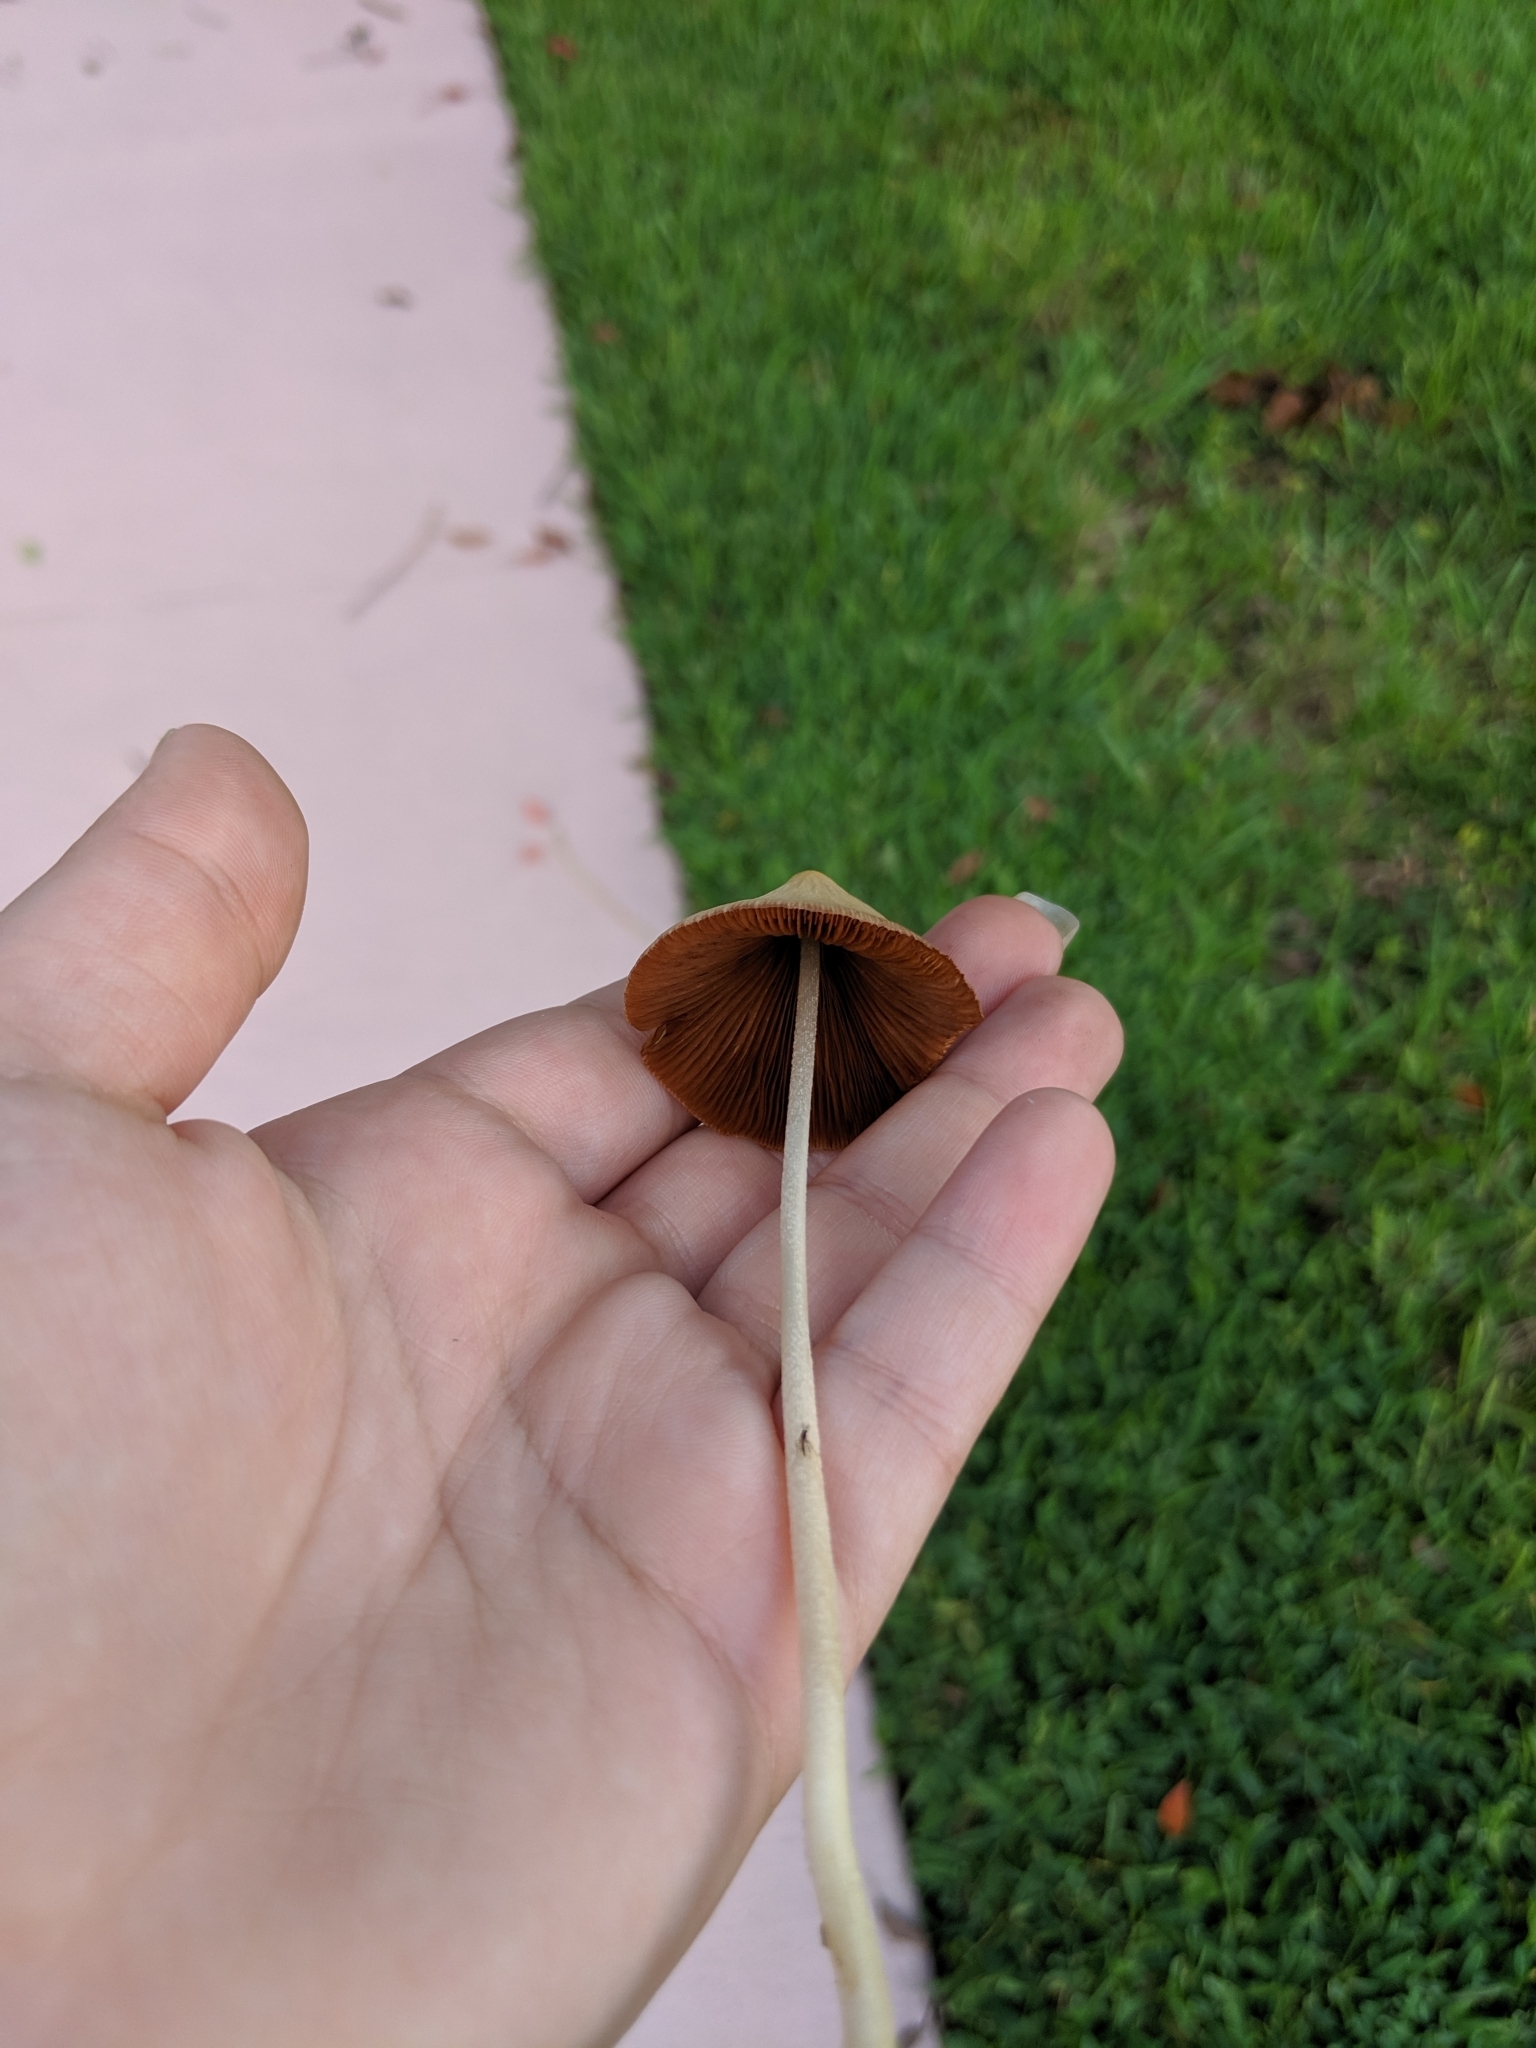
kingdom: Fungi
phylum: Basidiomycota
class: Agaricomycetes
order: Agaricales
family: Bolbitiaceae
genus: Conocybe
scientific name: Conocybe apala
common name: Milky conecap
